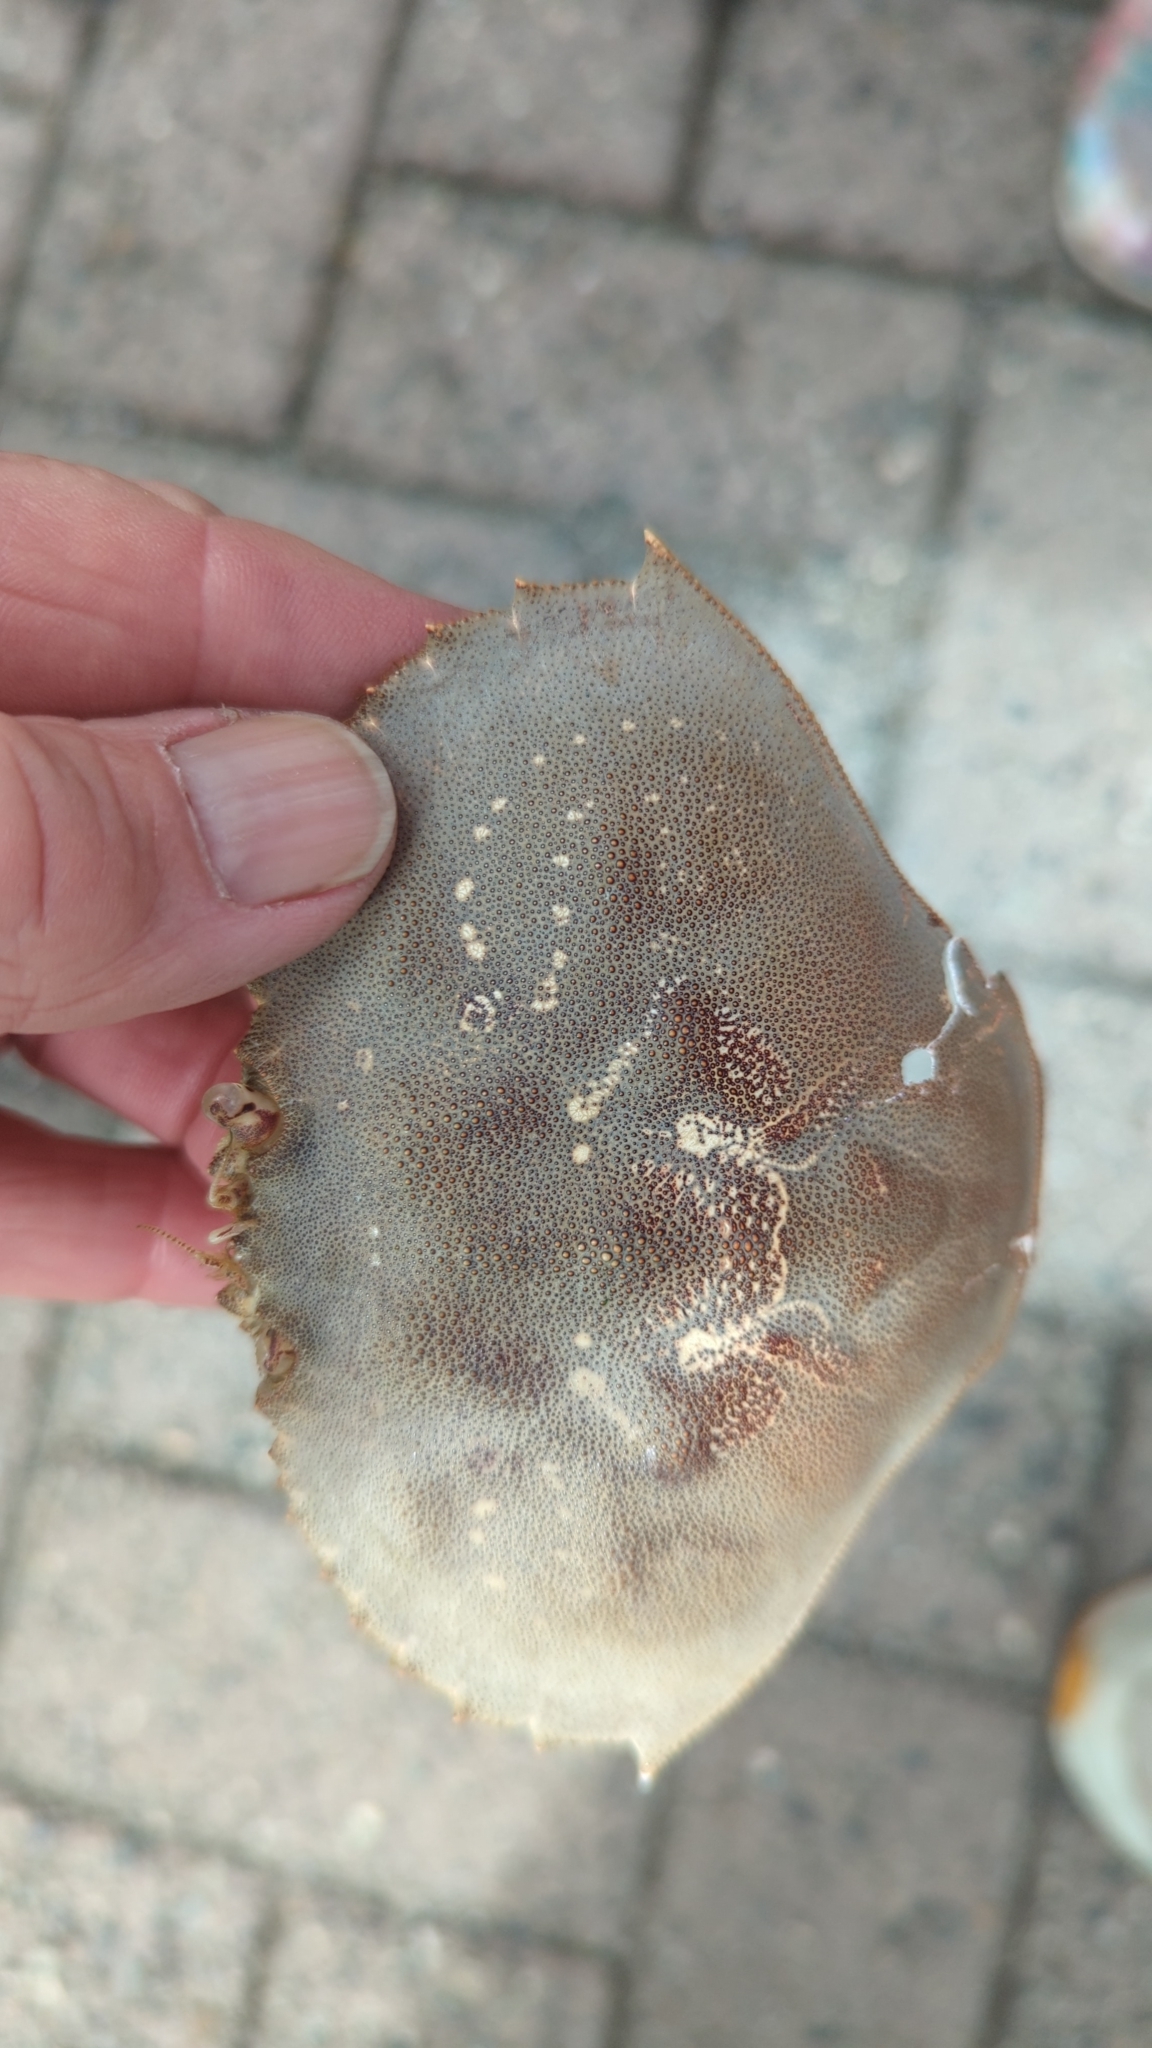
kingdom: Animalia
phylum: Arthropoda
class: Malacostraca
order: Decapoda
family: Cancridae
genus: Metacarcinus
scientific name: Metacarcinus magister
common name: Californian crab
